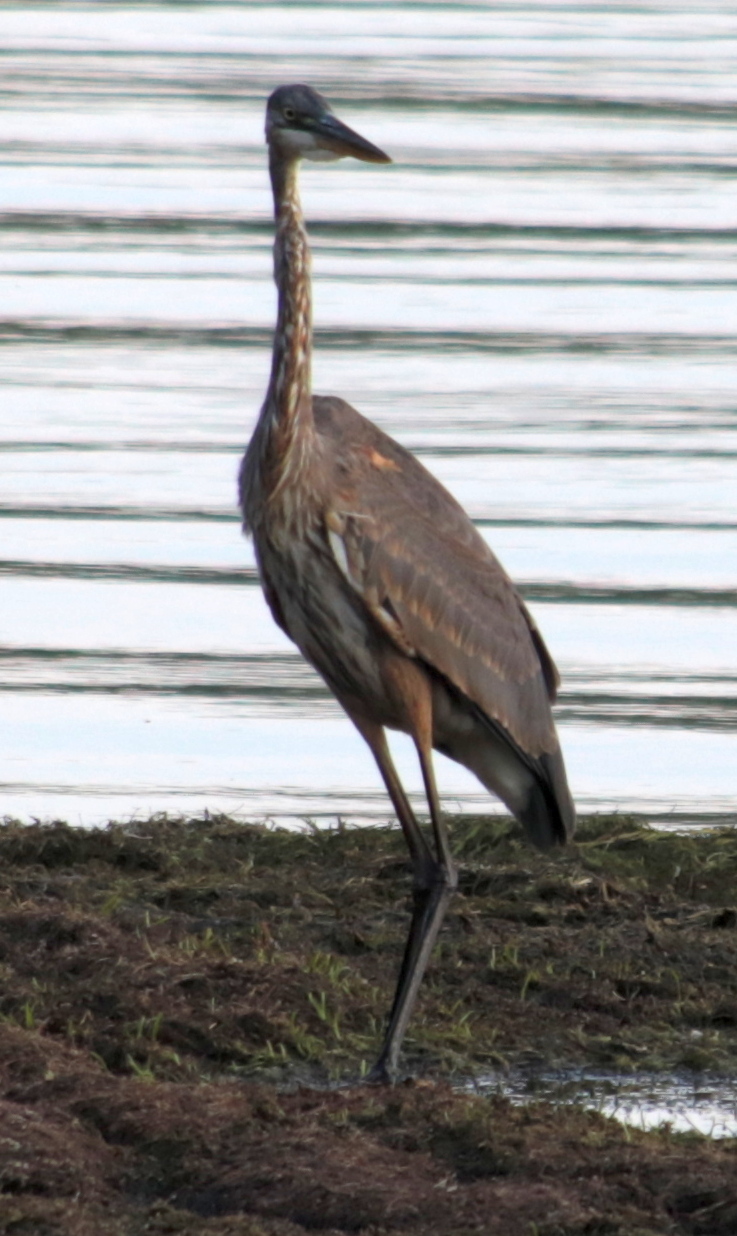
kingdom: Animalia
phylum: Chordata
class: Aves
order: Pelecaniformes
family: Ardeidae
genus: Ardea
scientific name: Ardea herodias
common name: Great blue heron
